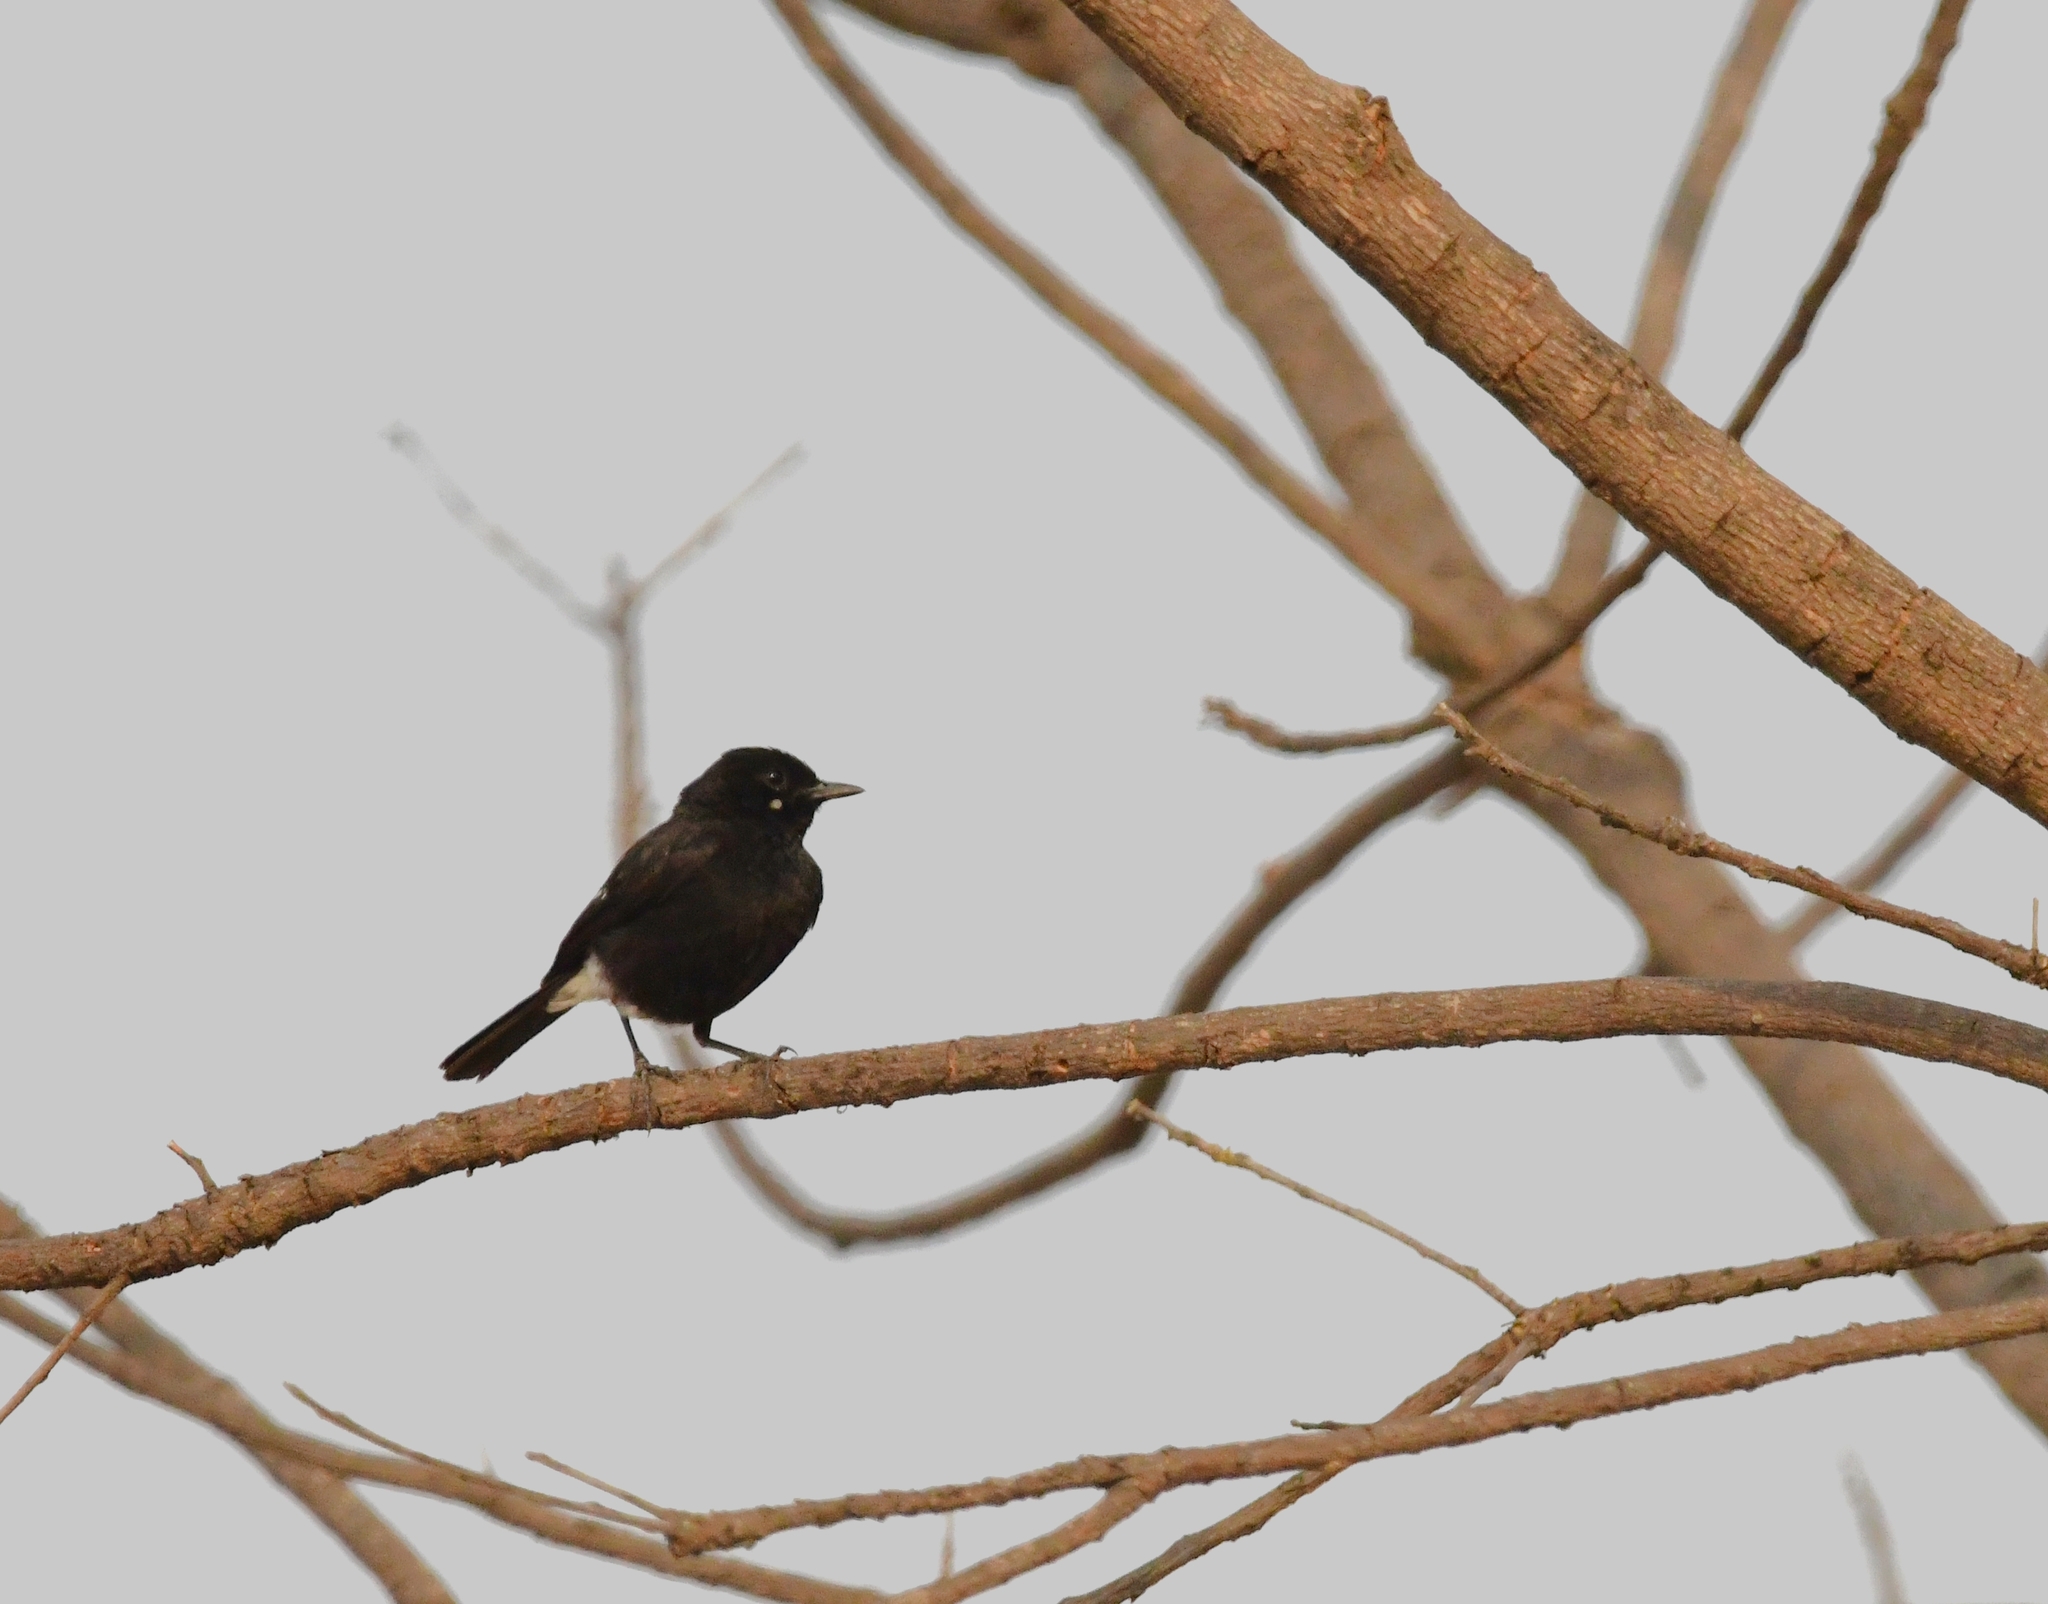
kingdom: Animalia
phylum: Chordata
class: Aves
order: Passeriformes
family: Muscicapidae
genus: Saxicola
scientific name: Saxicola caprata
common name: Pied bush chat
